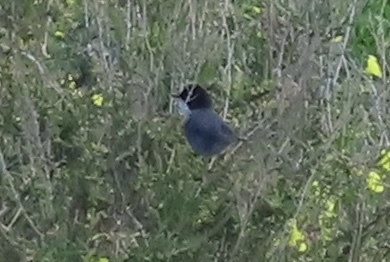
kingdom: Animalia
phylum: Chordata
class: Aves
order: Passeriformes
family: Sylviidae
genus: Curruca
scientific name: Curruca melanocephala
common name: Sardinian warbler
